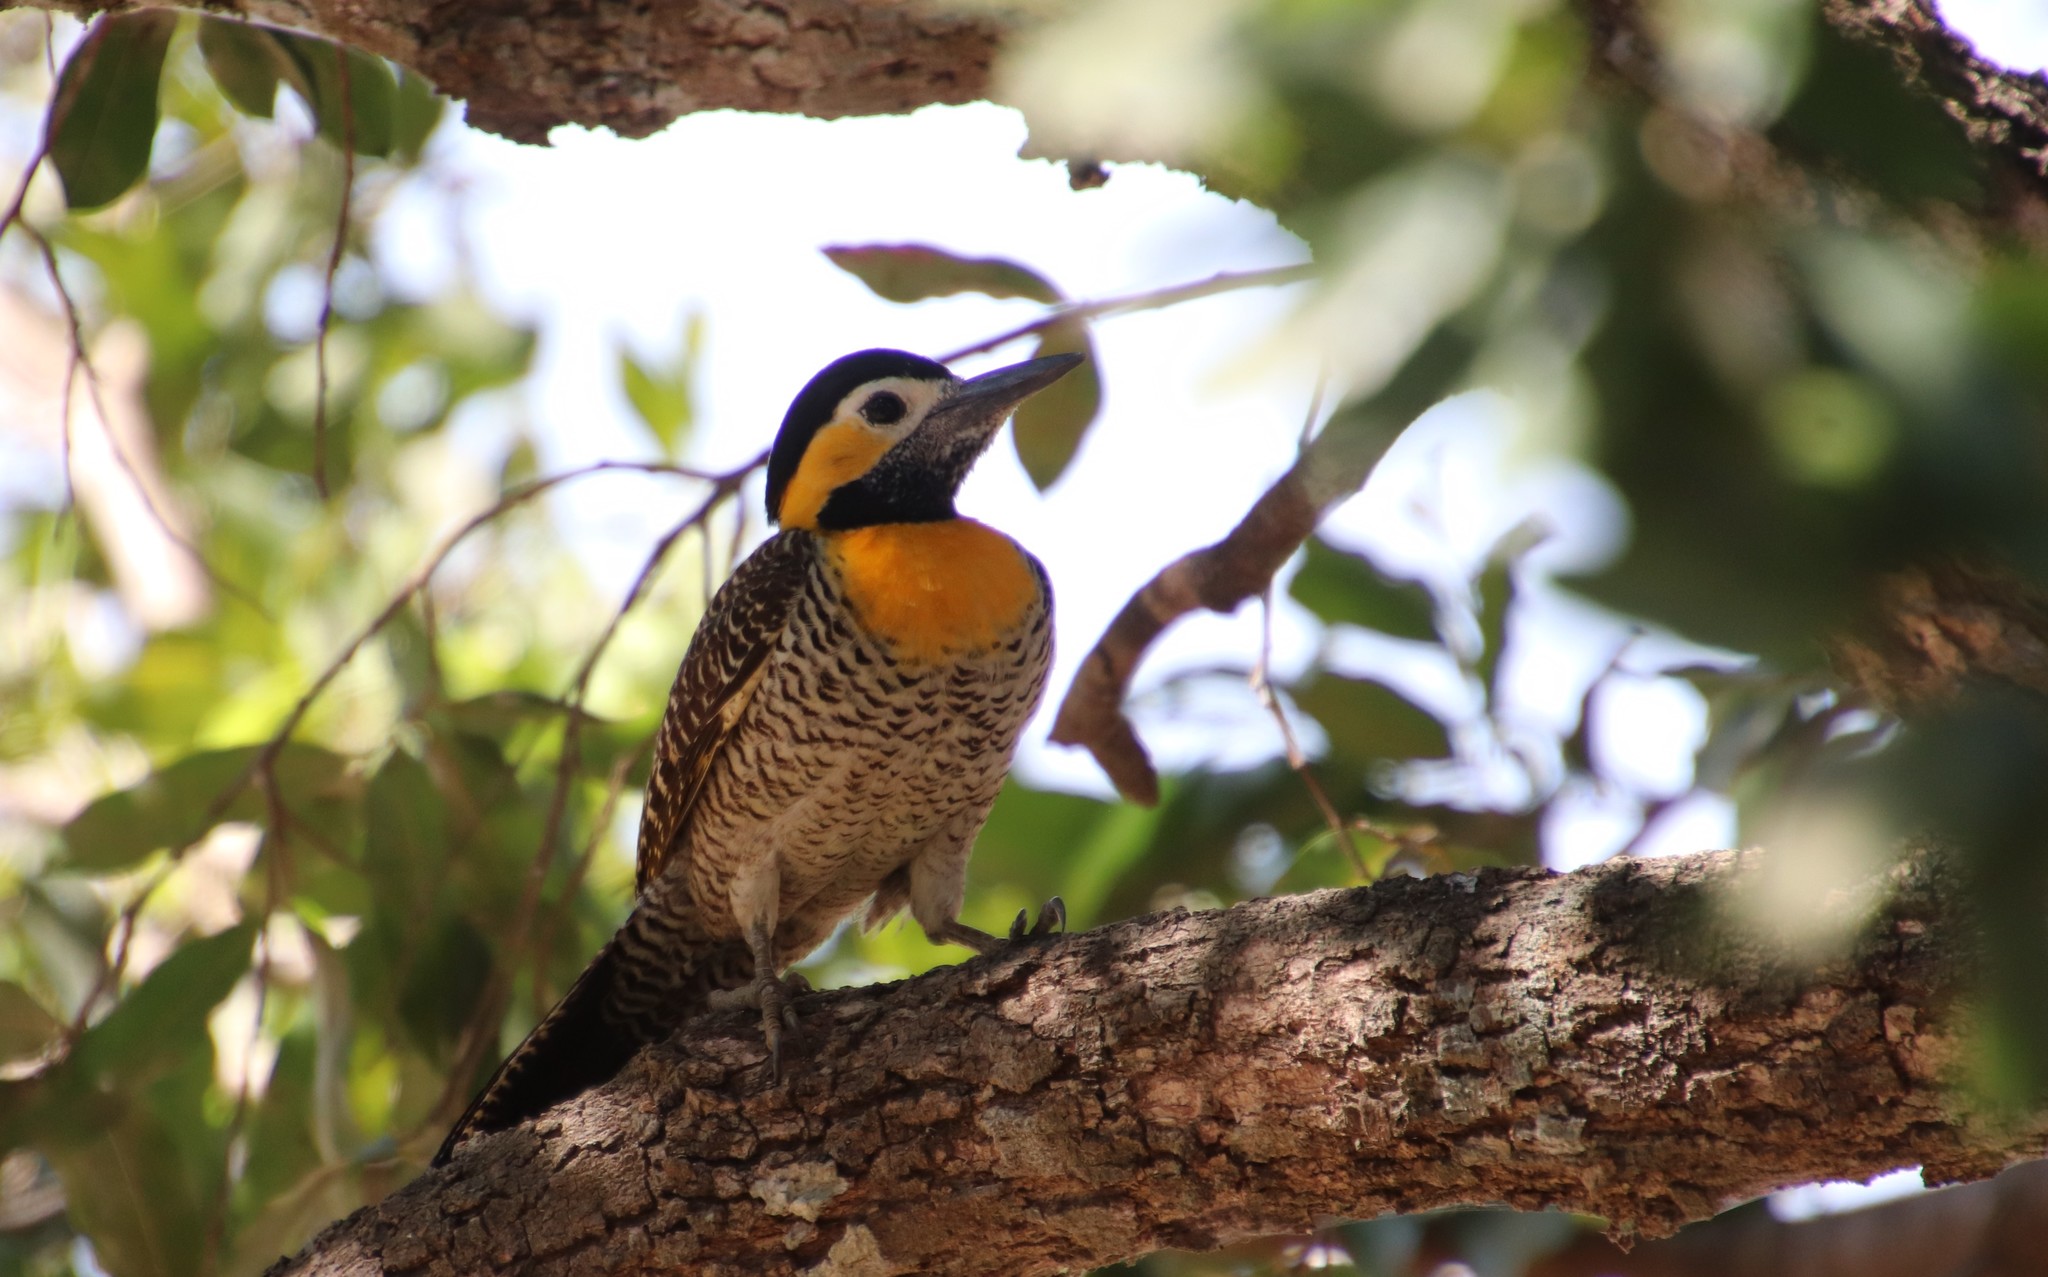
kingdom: Animalia
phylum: Chordata
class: Aves
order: Piciformes
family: Picidae
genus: Colaptes
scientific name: Colaptes campestris
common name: Campo flicker
